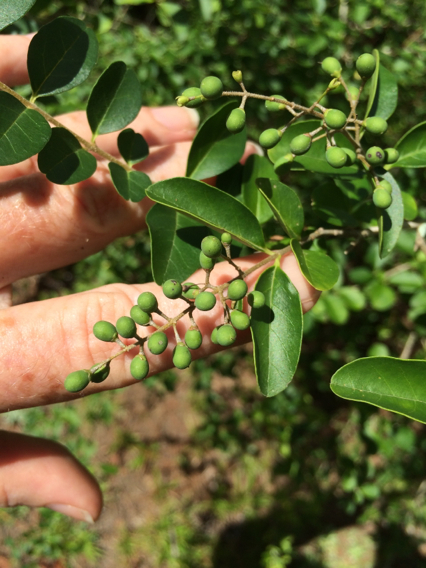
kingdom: Plantae
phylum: Tracheophyta
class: Magnoliopsida
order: Lamiales
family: Oleaceae
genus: Ligustrum
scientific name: Ligustrum sinense
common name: Chinese privet
